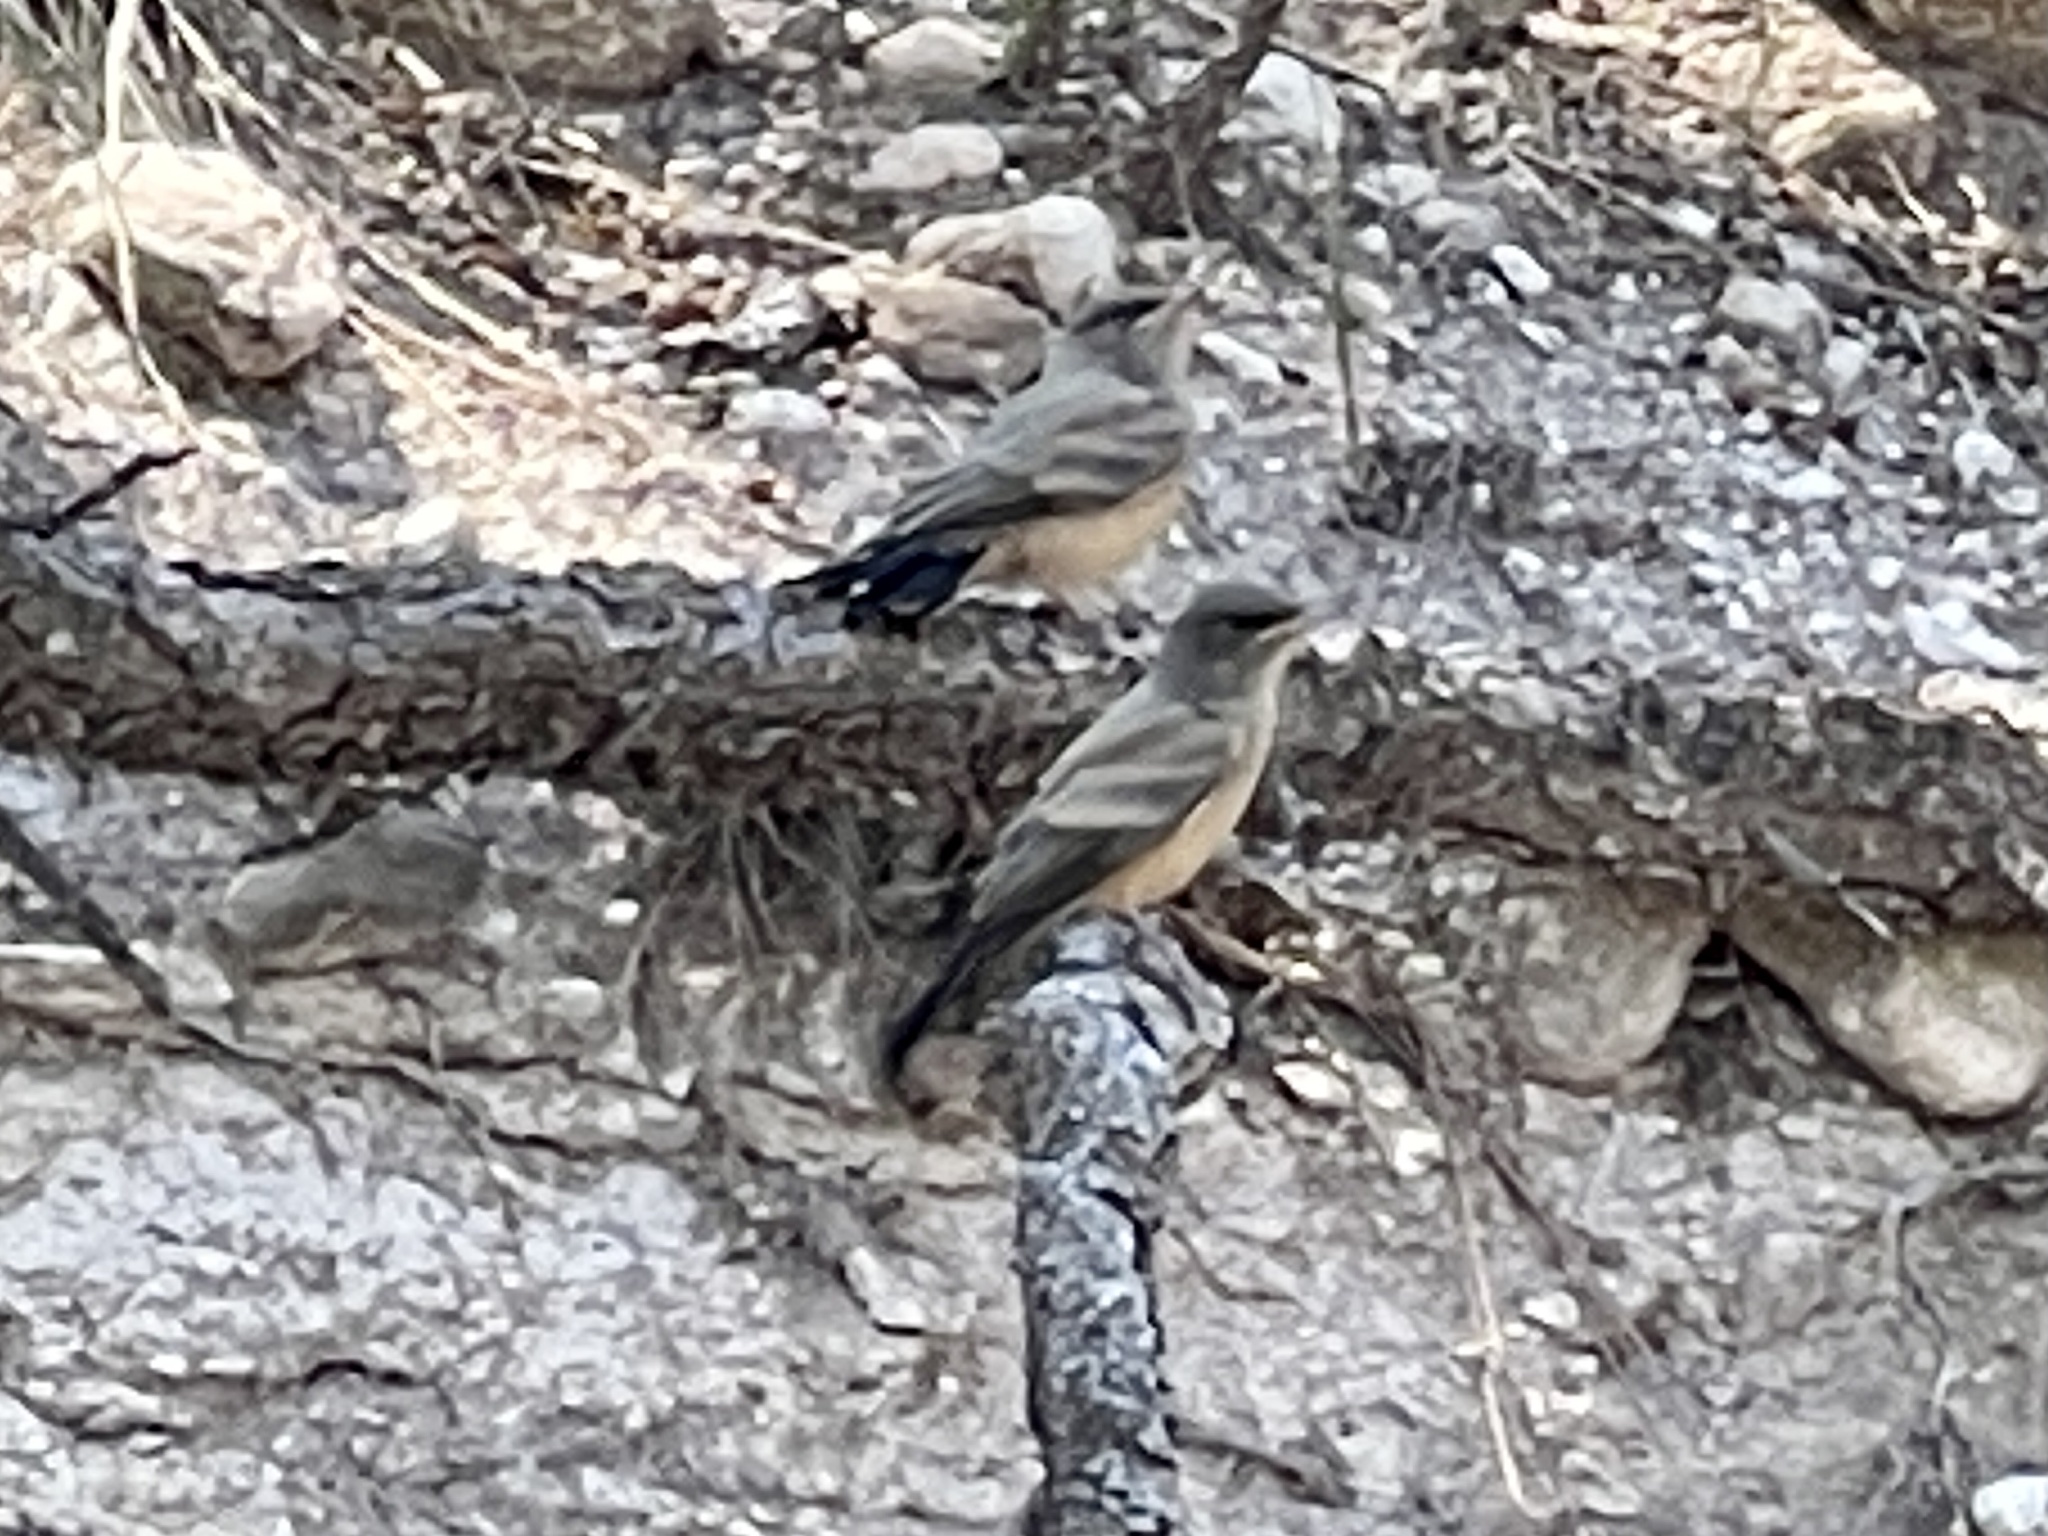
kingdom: Animalia
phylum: Chordata
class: Aves
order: Passeriformes
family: Tyrannidae
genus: Sayornis
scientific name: Sayornis saya
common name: Say's phoebe
